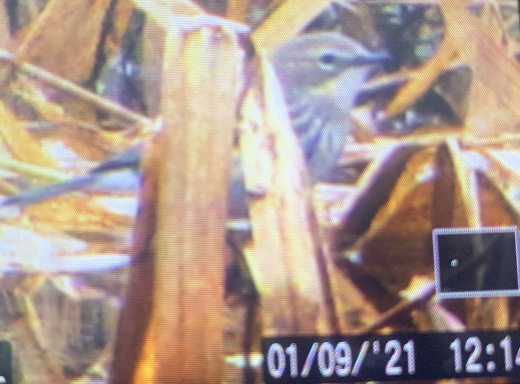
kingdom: Animalia
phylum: Chordata
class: Aves
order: Passeriformes
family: Parulidae
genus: Setophaga
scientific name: Setophaga coronata
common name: Myrtle warbler
